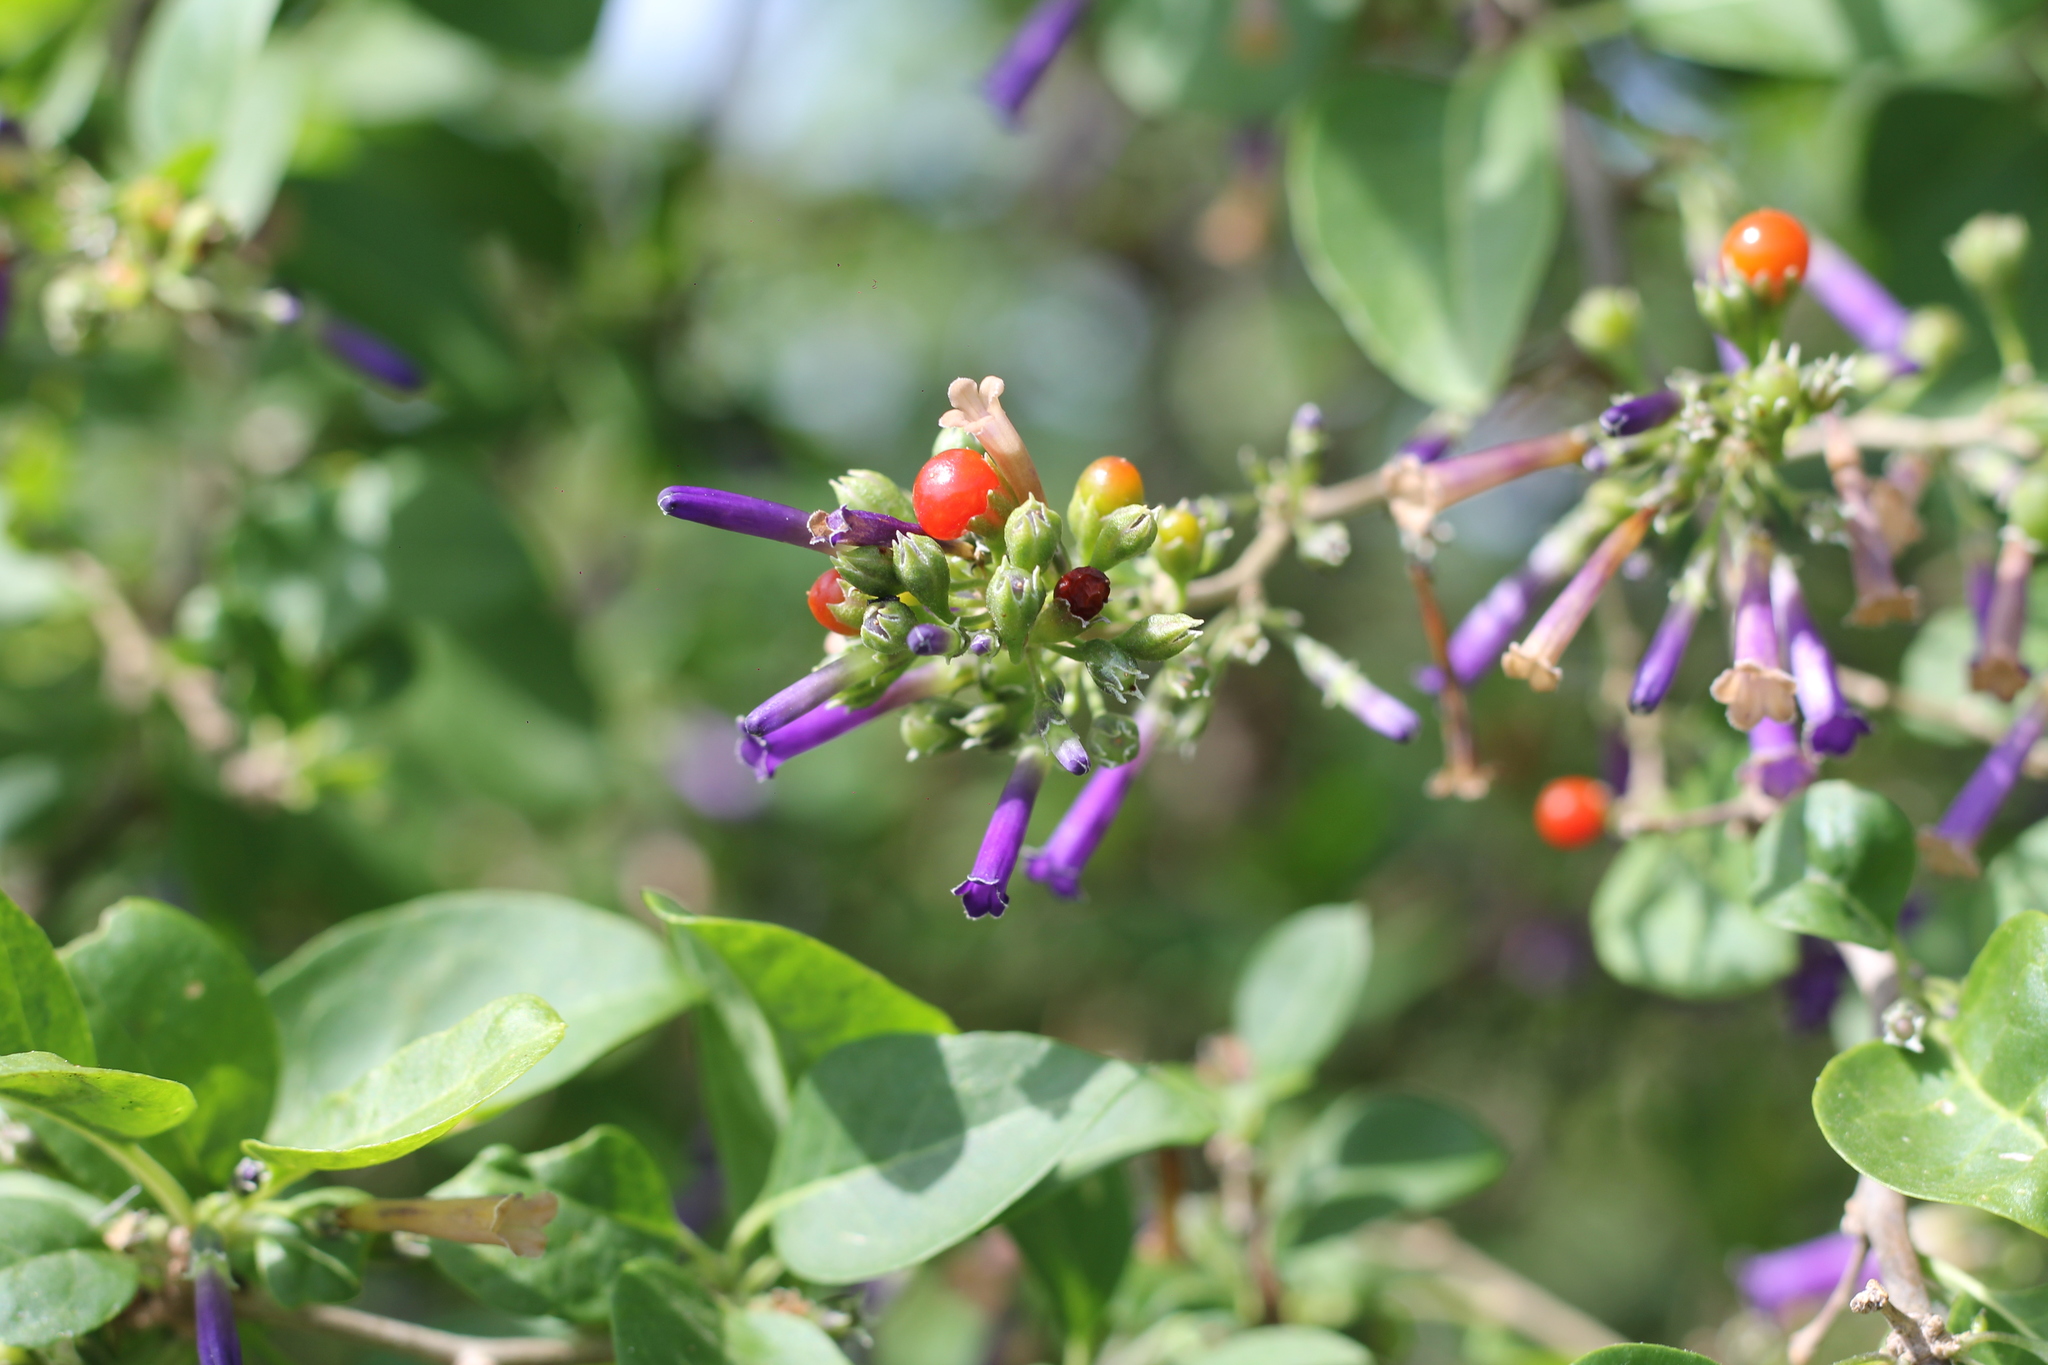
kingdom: Plantae
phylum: Tracheophyta
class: Magnoliopsida
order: Solanales
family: Solanaceae
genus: Lycium
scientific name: Lycium cestroides
